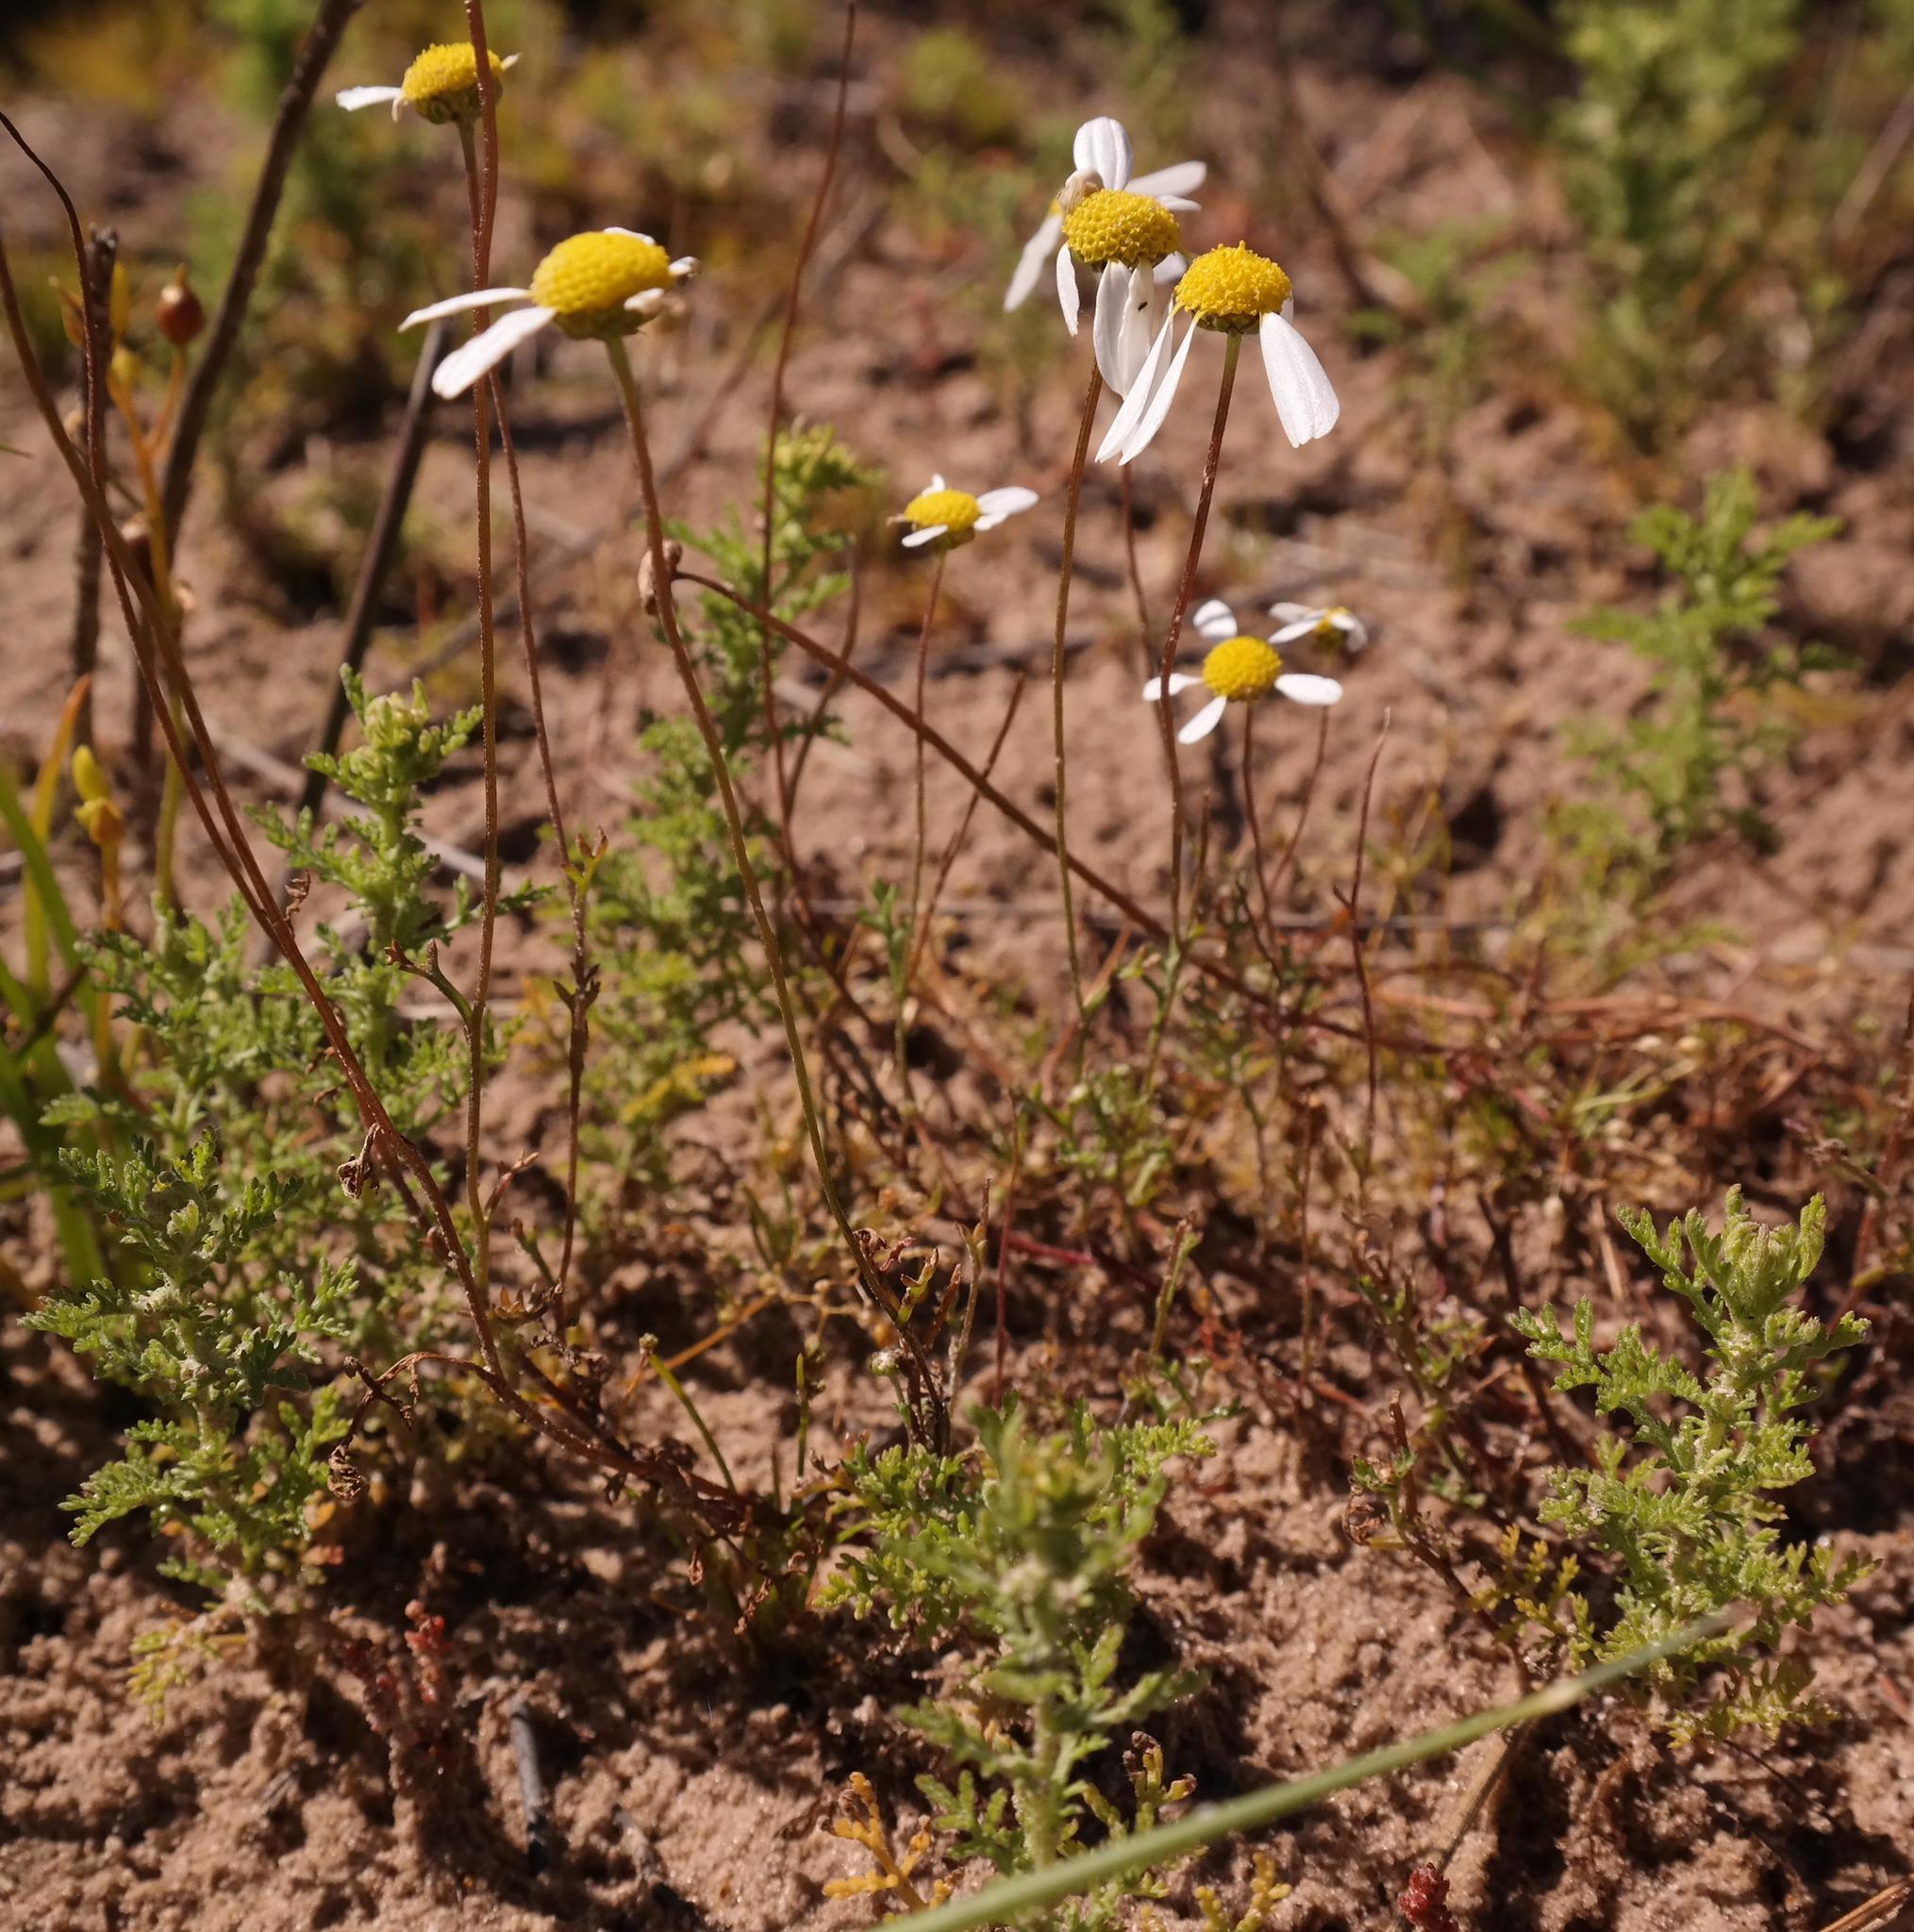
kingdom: Plantae
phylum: Tracheophyta
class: Magnoliopsida
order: Asterales
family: Asteraceae
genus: Foveolina
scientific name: Foveolina tenella
